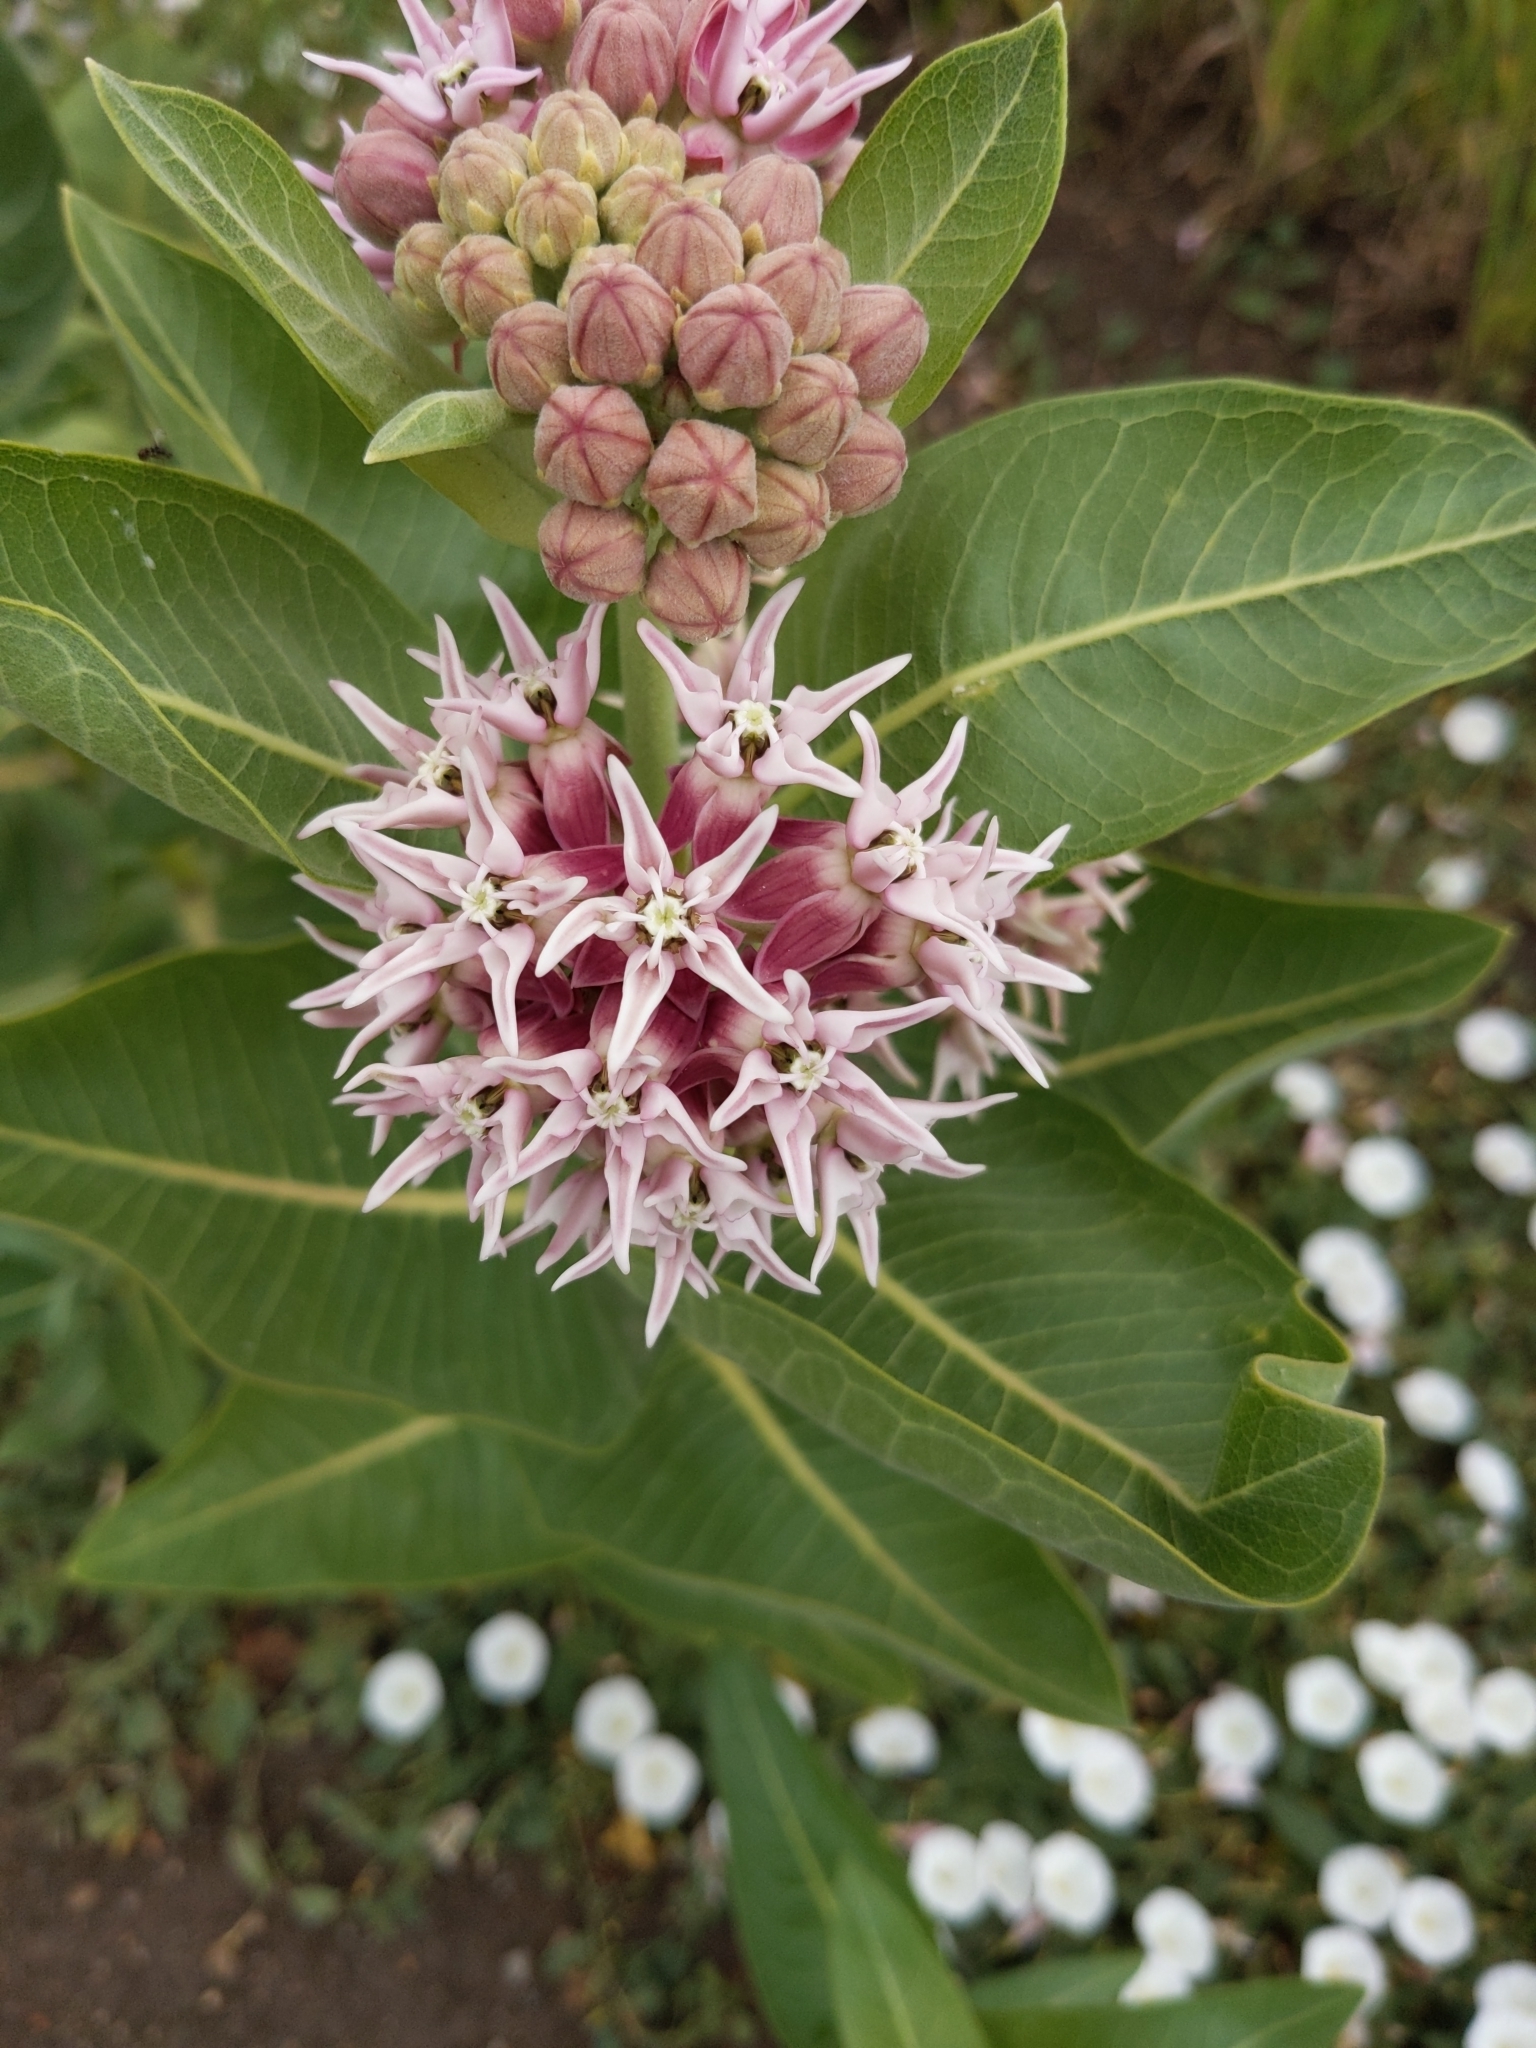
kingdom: Plantae
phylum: Tracheophyta
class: Magnoliopsida
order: Gentianales
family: Apocynaceae
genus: Asclepias
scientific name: Asclepias speciosa
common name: Showy milkweed
